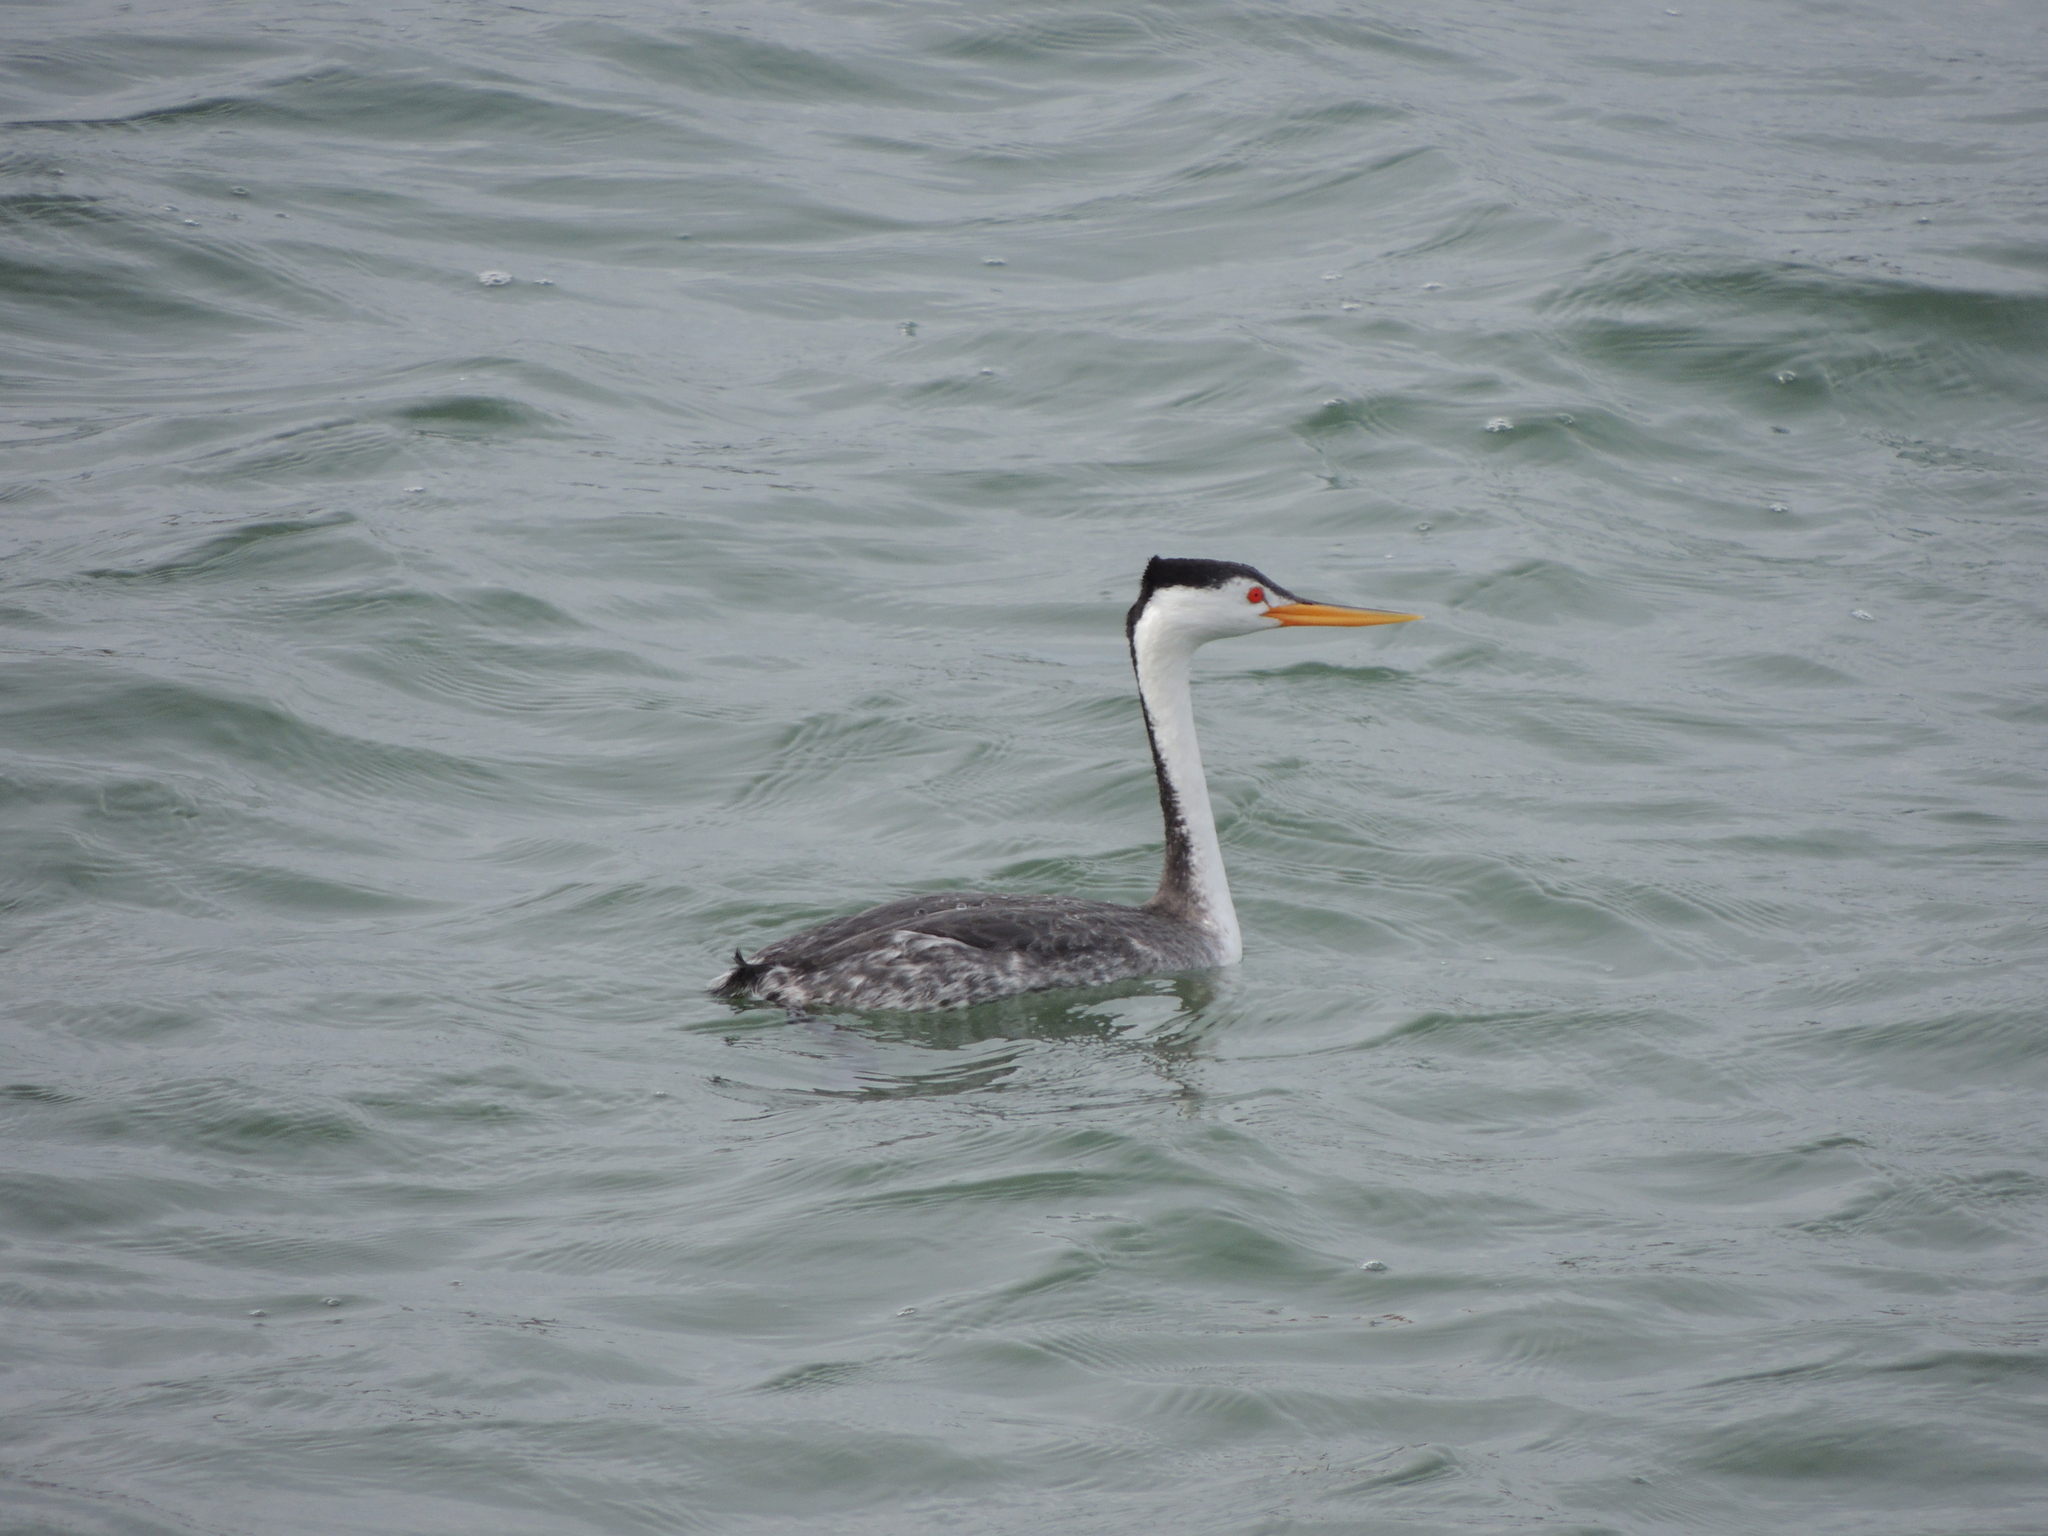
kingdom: Animalia
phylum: Chordata
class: Aves
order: Podicipediformes
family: Podicipedidae
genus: Aechmophorus
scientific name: Aechmophorus clarkii
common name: Clark's grebe
